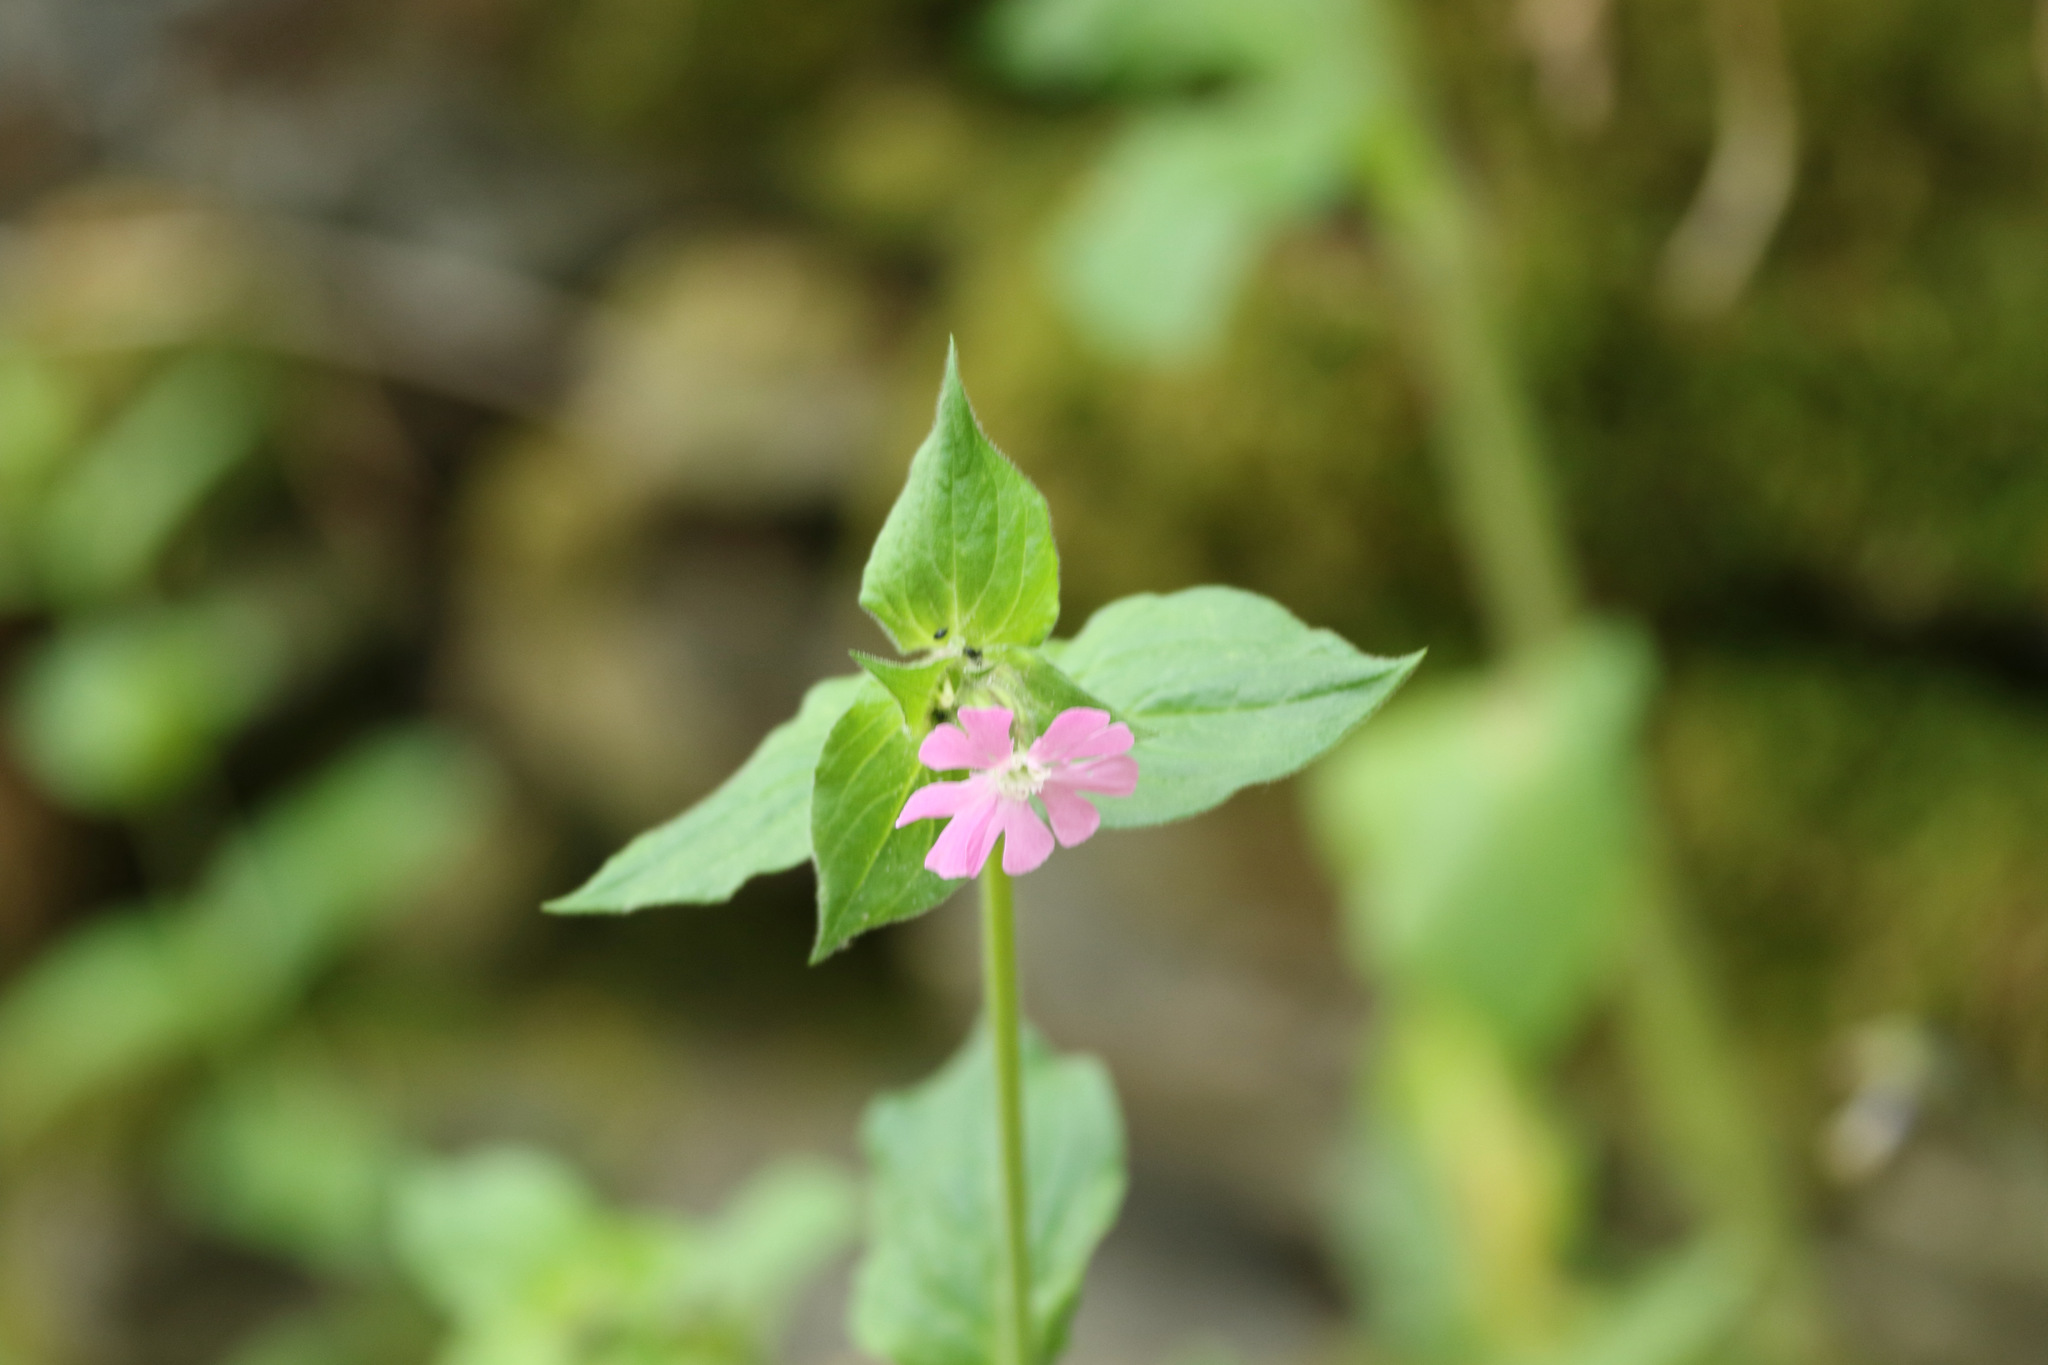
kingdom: Plantae
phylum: Tracheophyta
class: Magnoliopsida
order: Caryophyllales
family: Caryophyllaceae
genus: Silene
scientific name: Silene dioica
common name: Red campion
